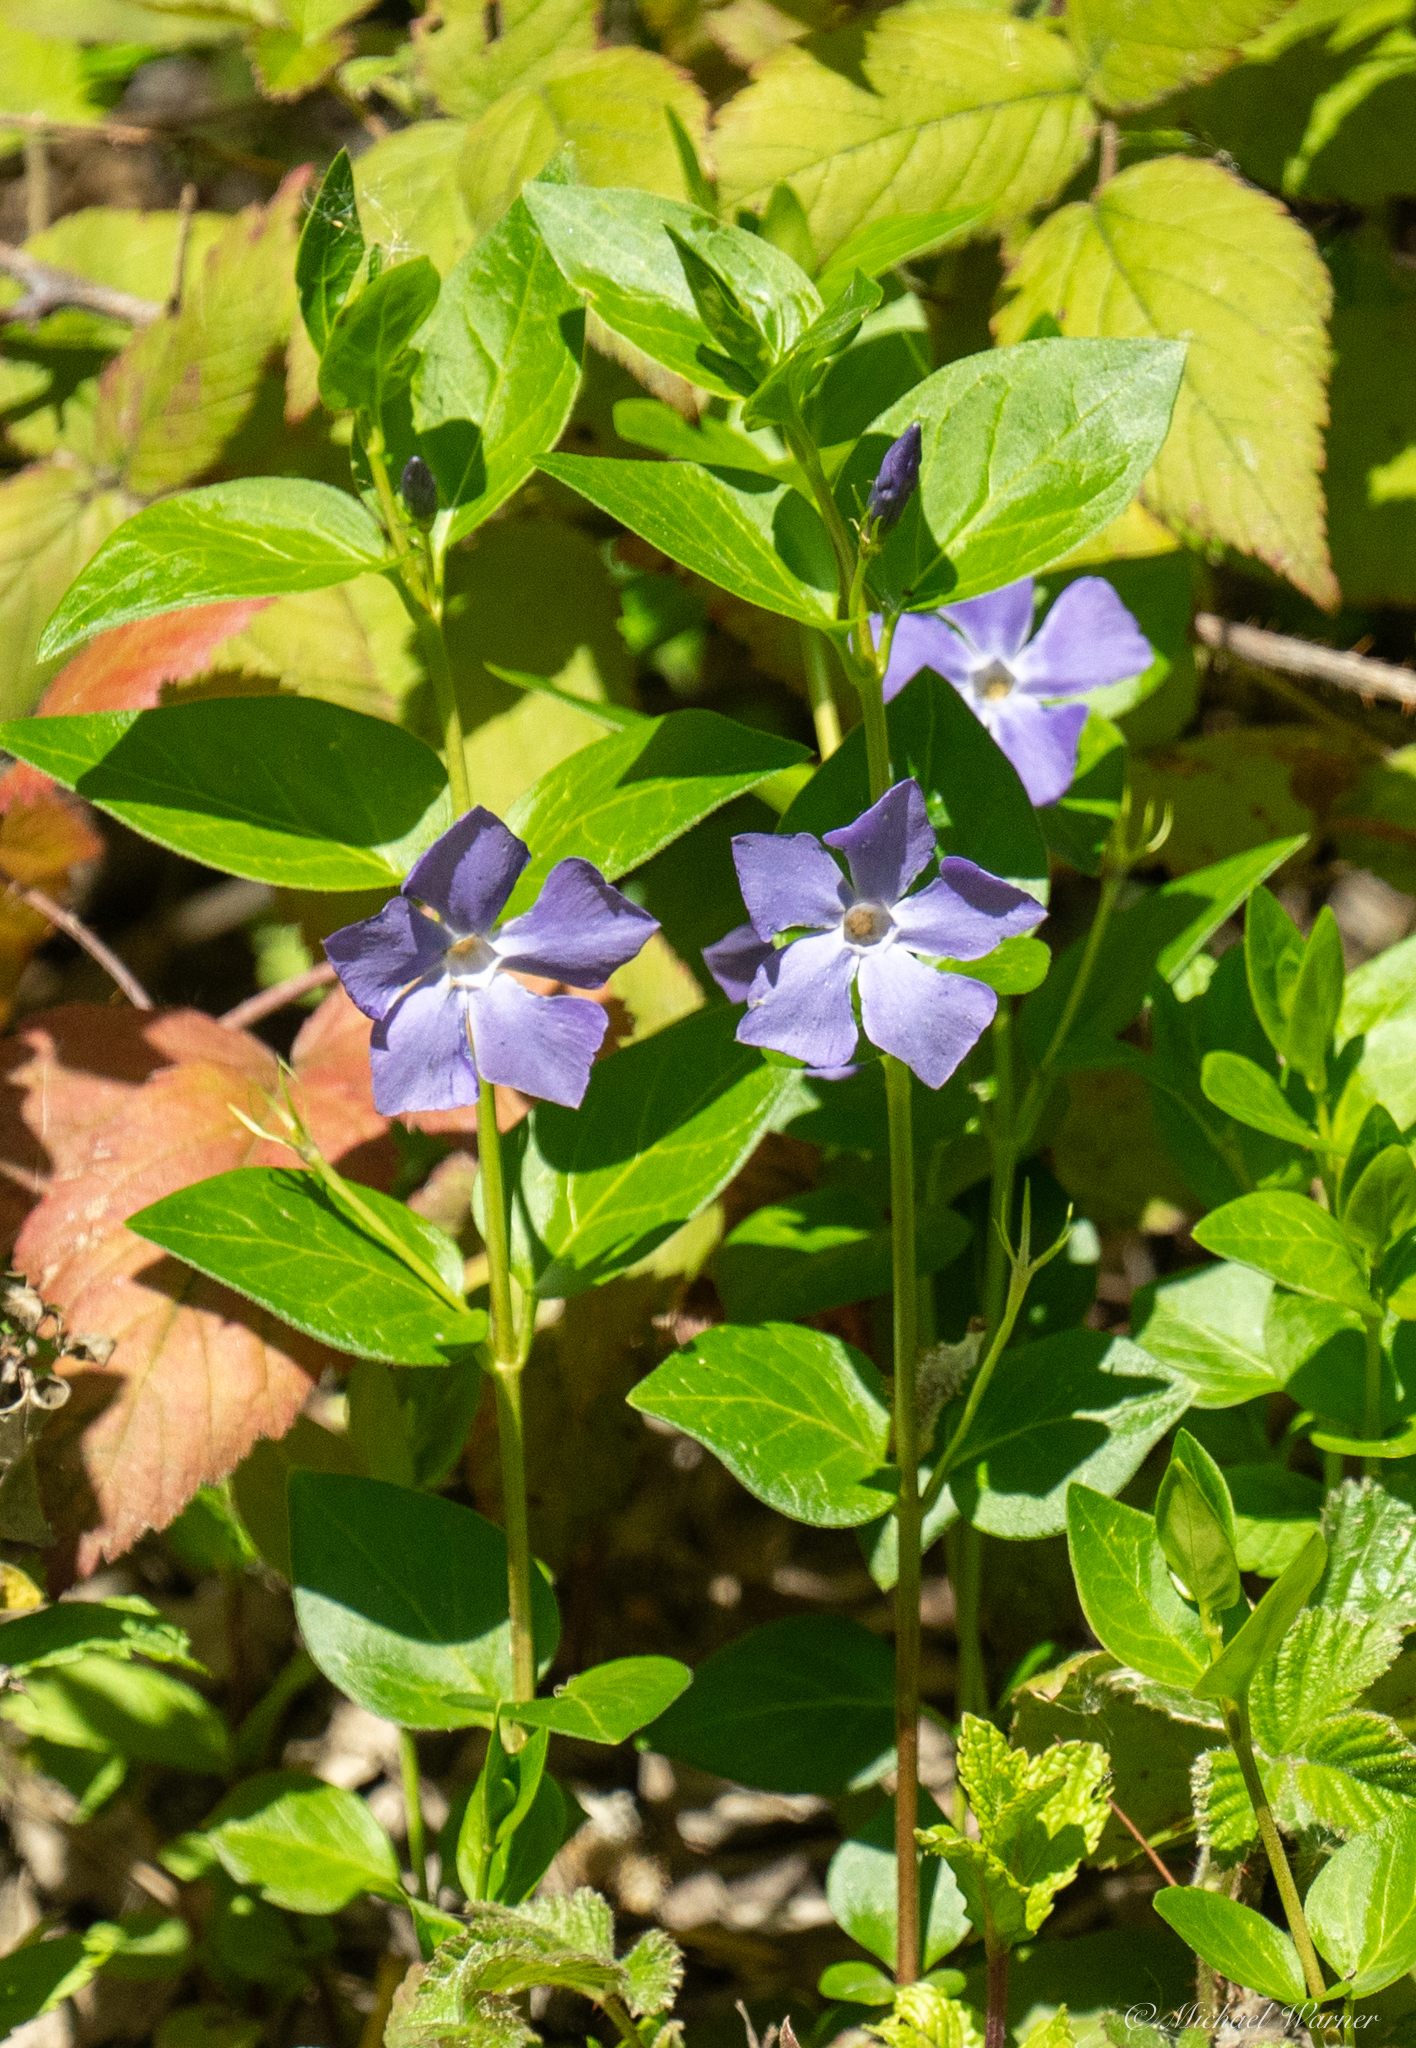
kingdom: Plantae
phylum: Tracheophyta
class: Magnoliopsida
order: Gentianales
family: Apocynaceae
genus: Vinca
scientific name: Vinca major
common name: Greater periwinkle
